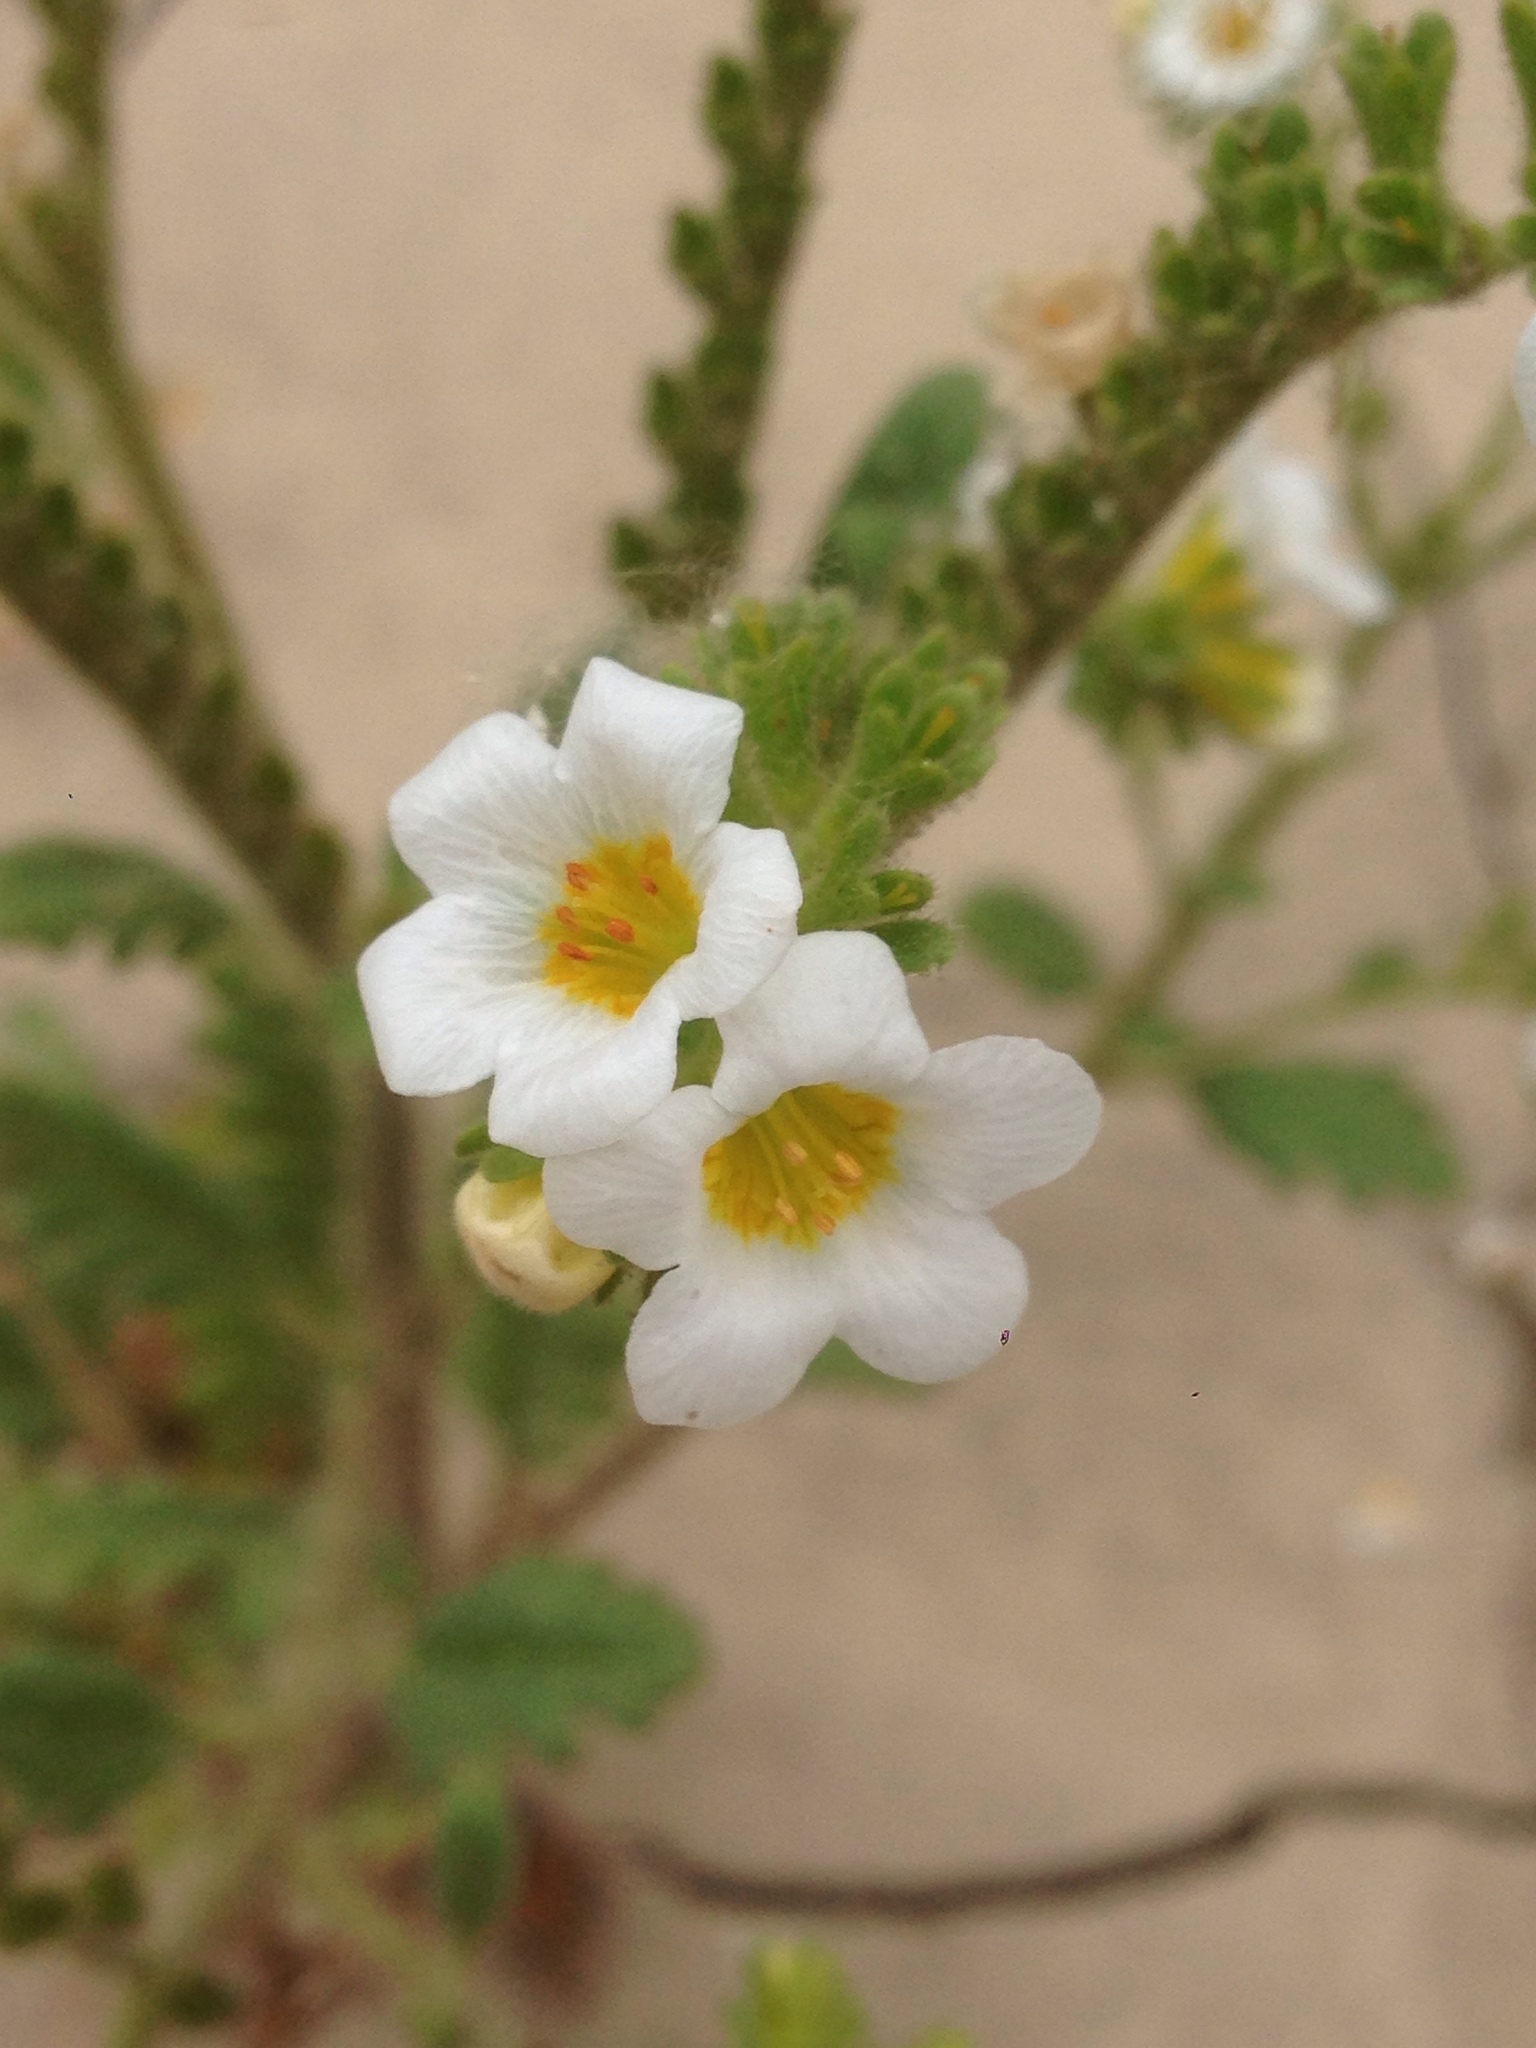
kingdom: Plantae
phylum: Tracheophyta
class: Magnoliopsida
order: Boraginales
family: Hydrophyllaceae
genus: Phacelia
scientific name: Phacelia brachyloba
